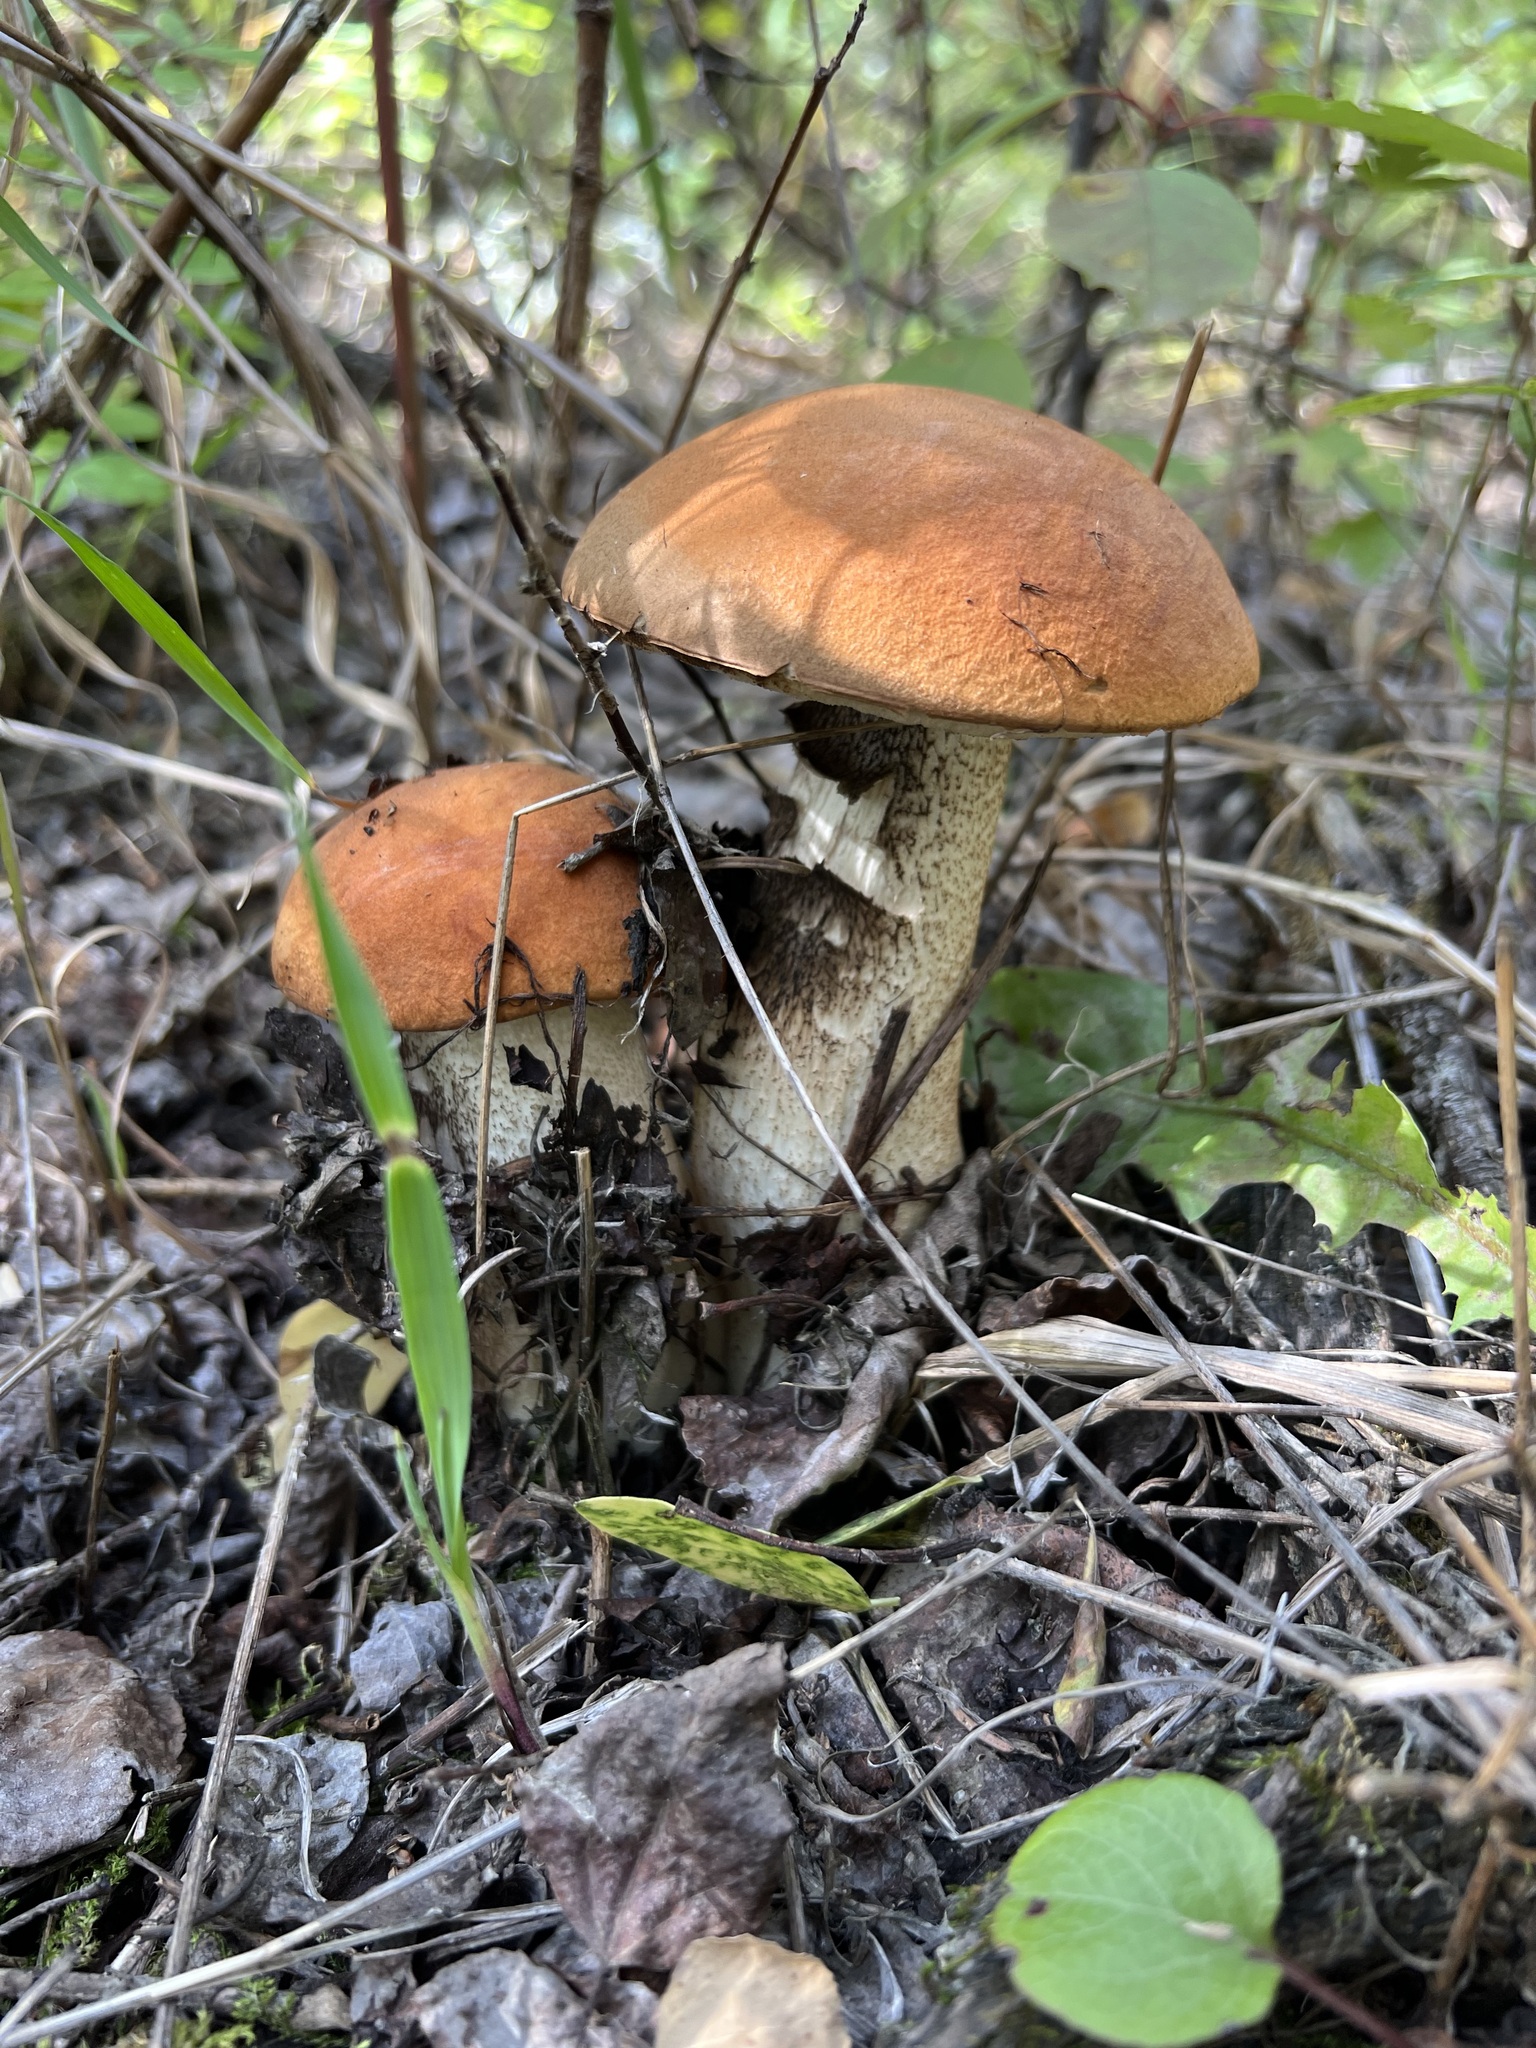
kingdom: Fungi
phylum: Basidiomycota
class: Agaricomycetes
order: Boletales
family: Boletaceae
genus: Leccinum
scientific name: Leccinum insigne
